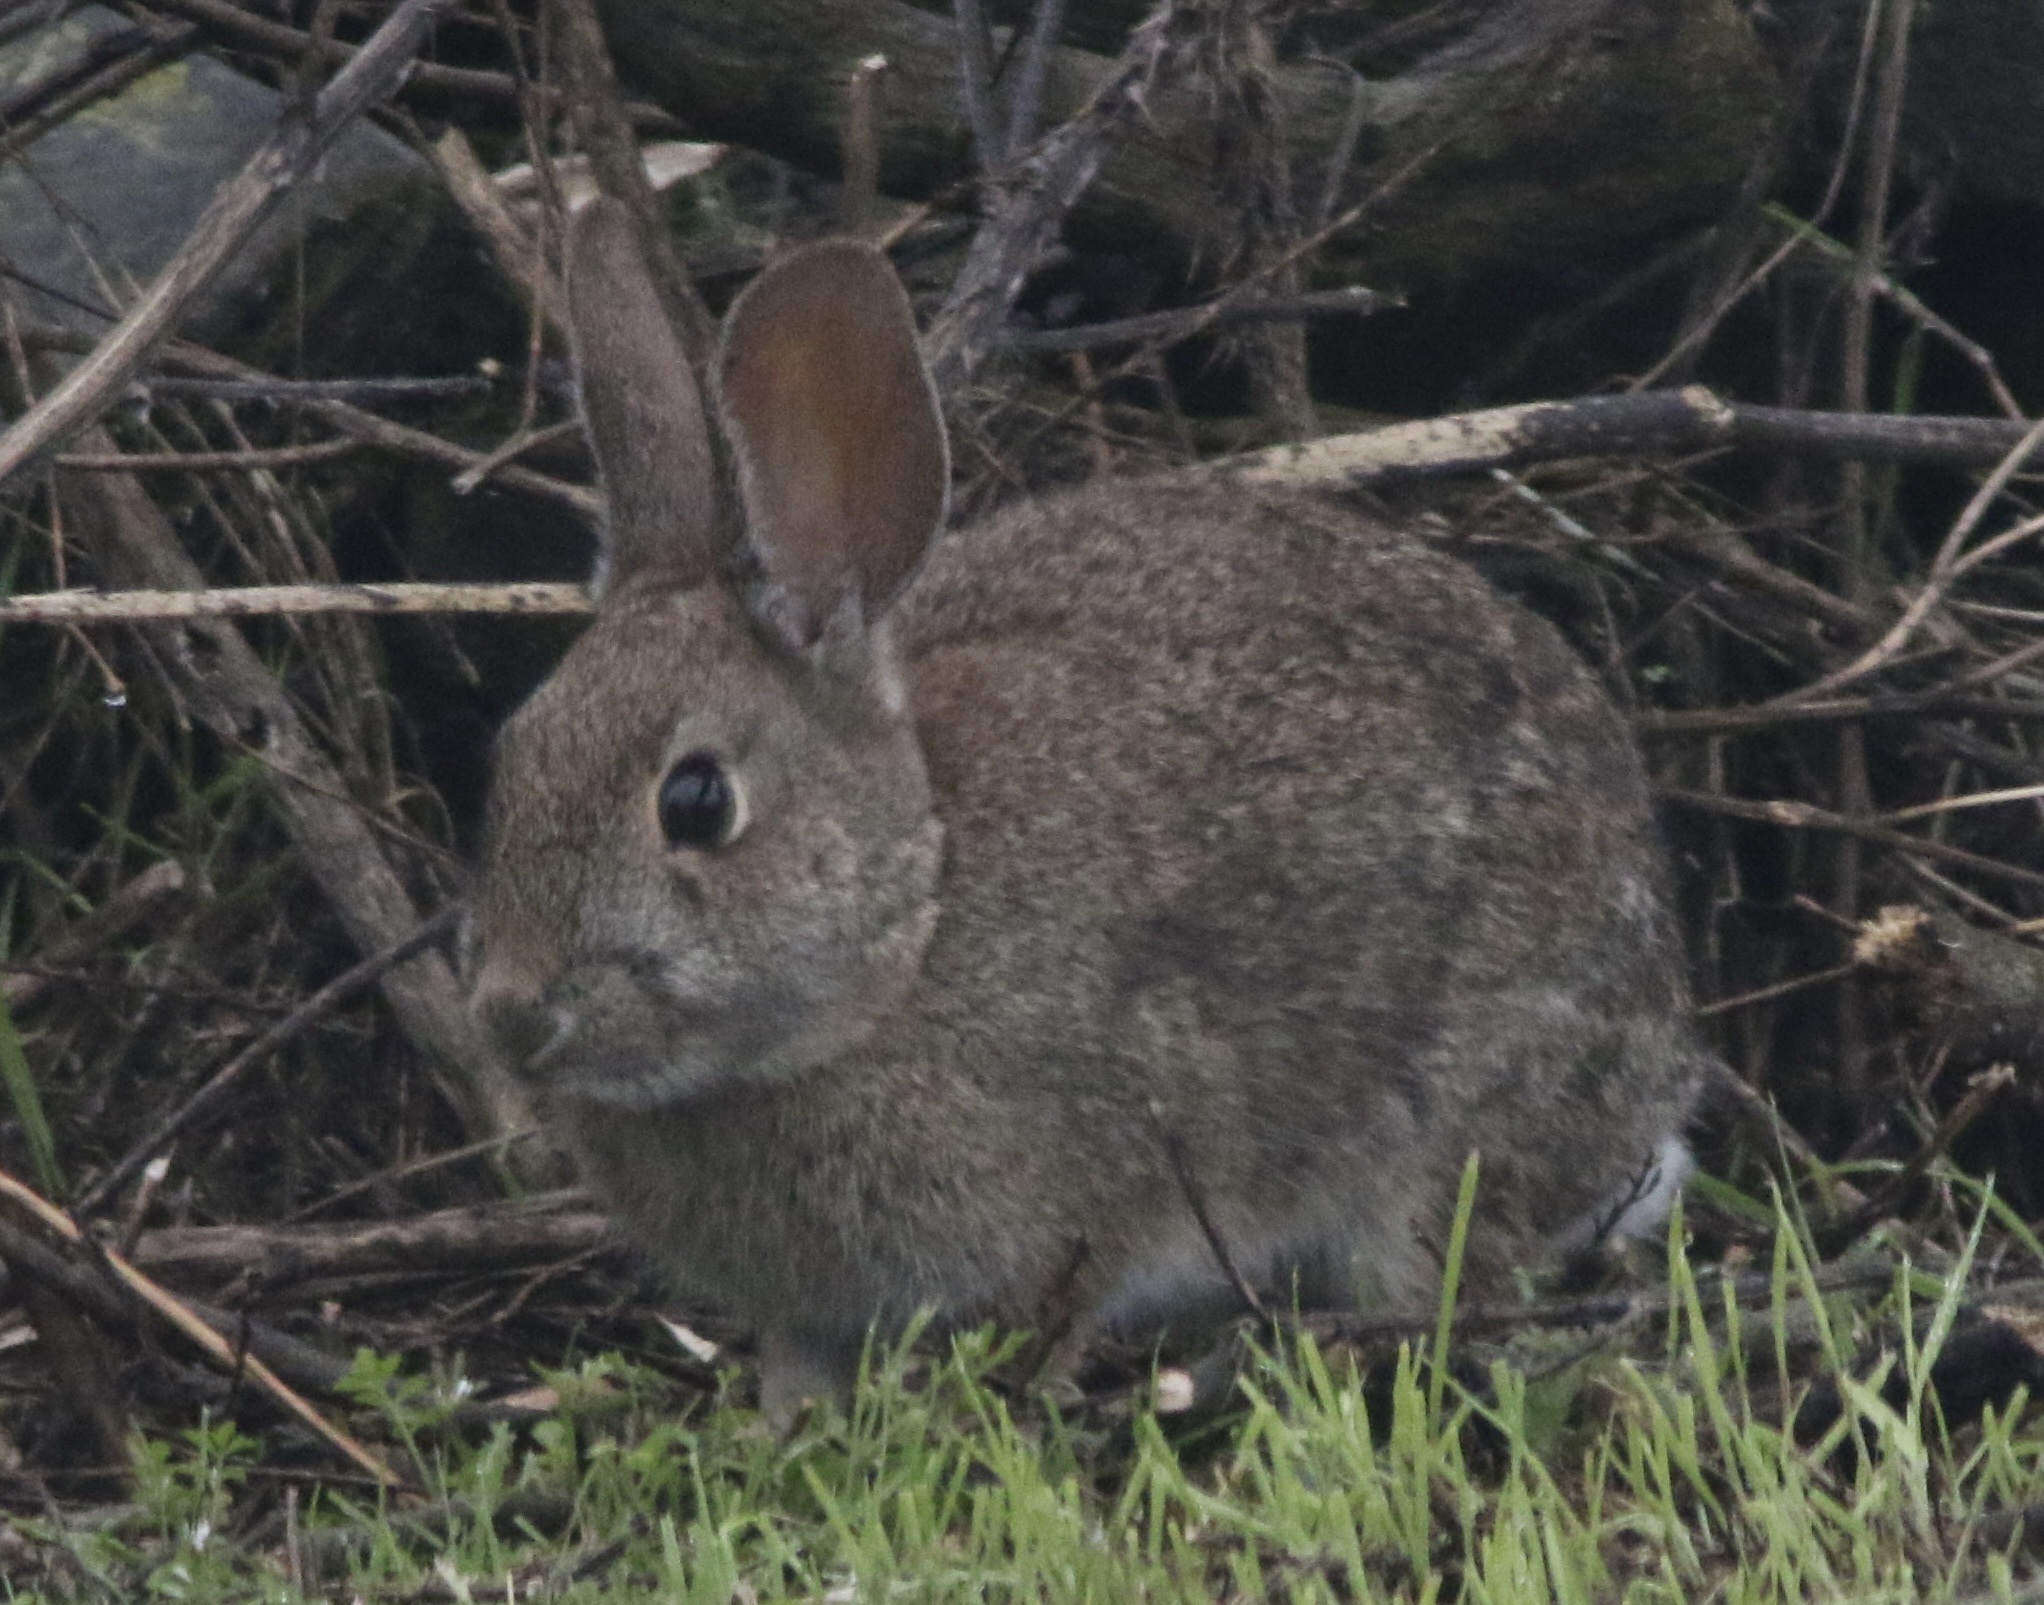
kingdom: Animalia
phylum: Chordata
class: Mammalia
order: Lagomorpha
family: Leporidae
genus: Sylvilagus
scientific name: Sylvilagus bachmani
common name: Brush rabbit
